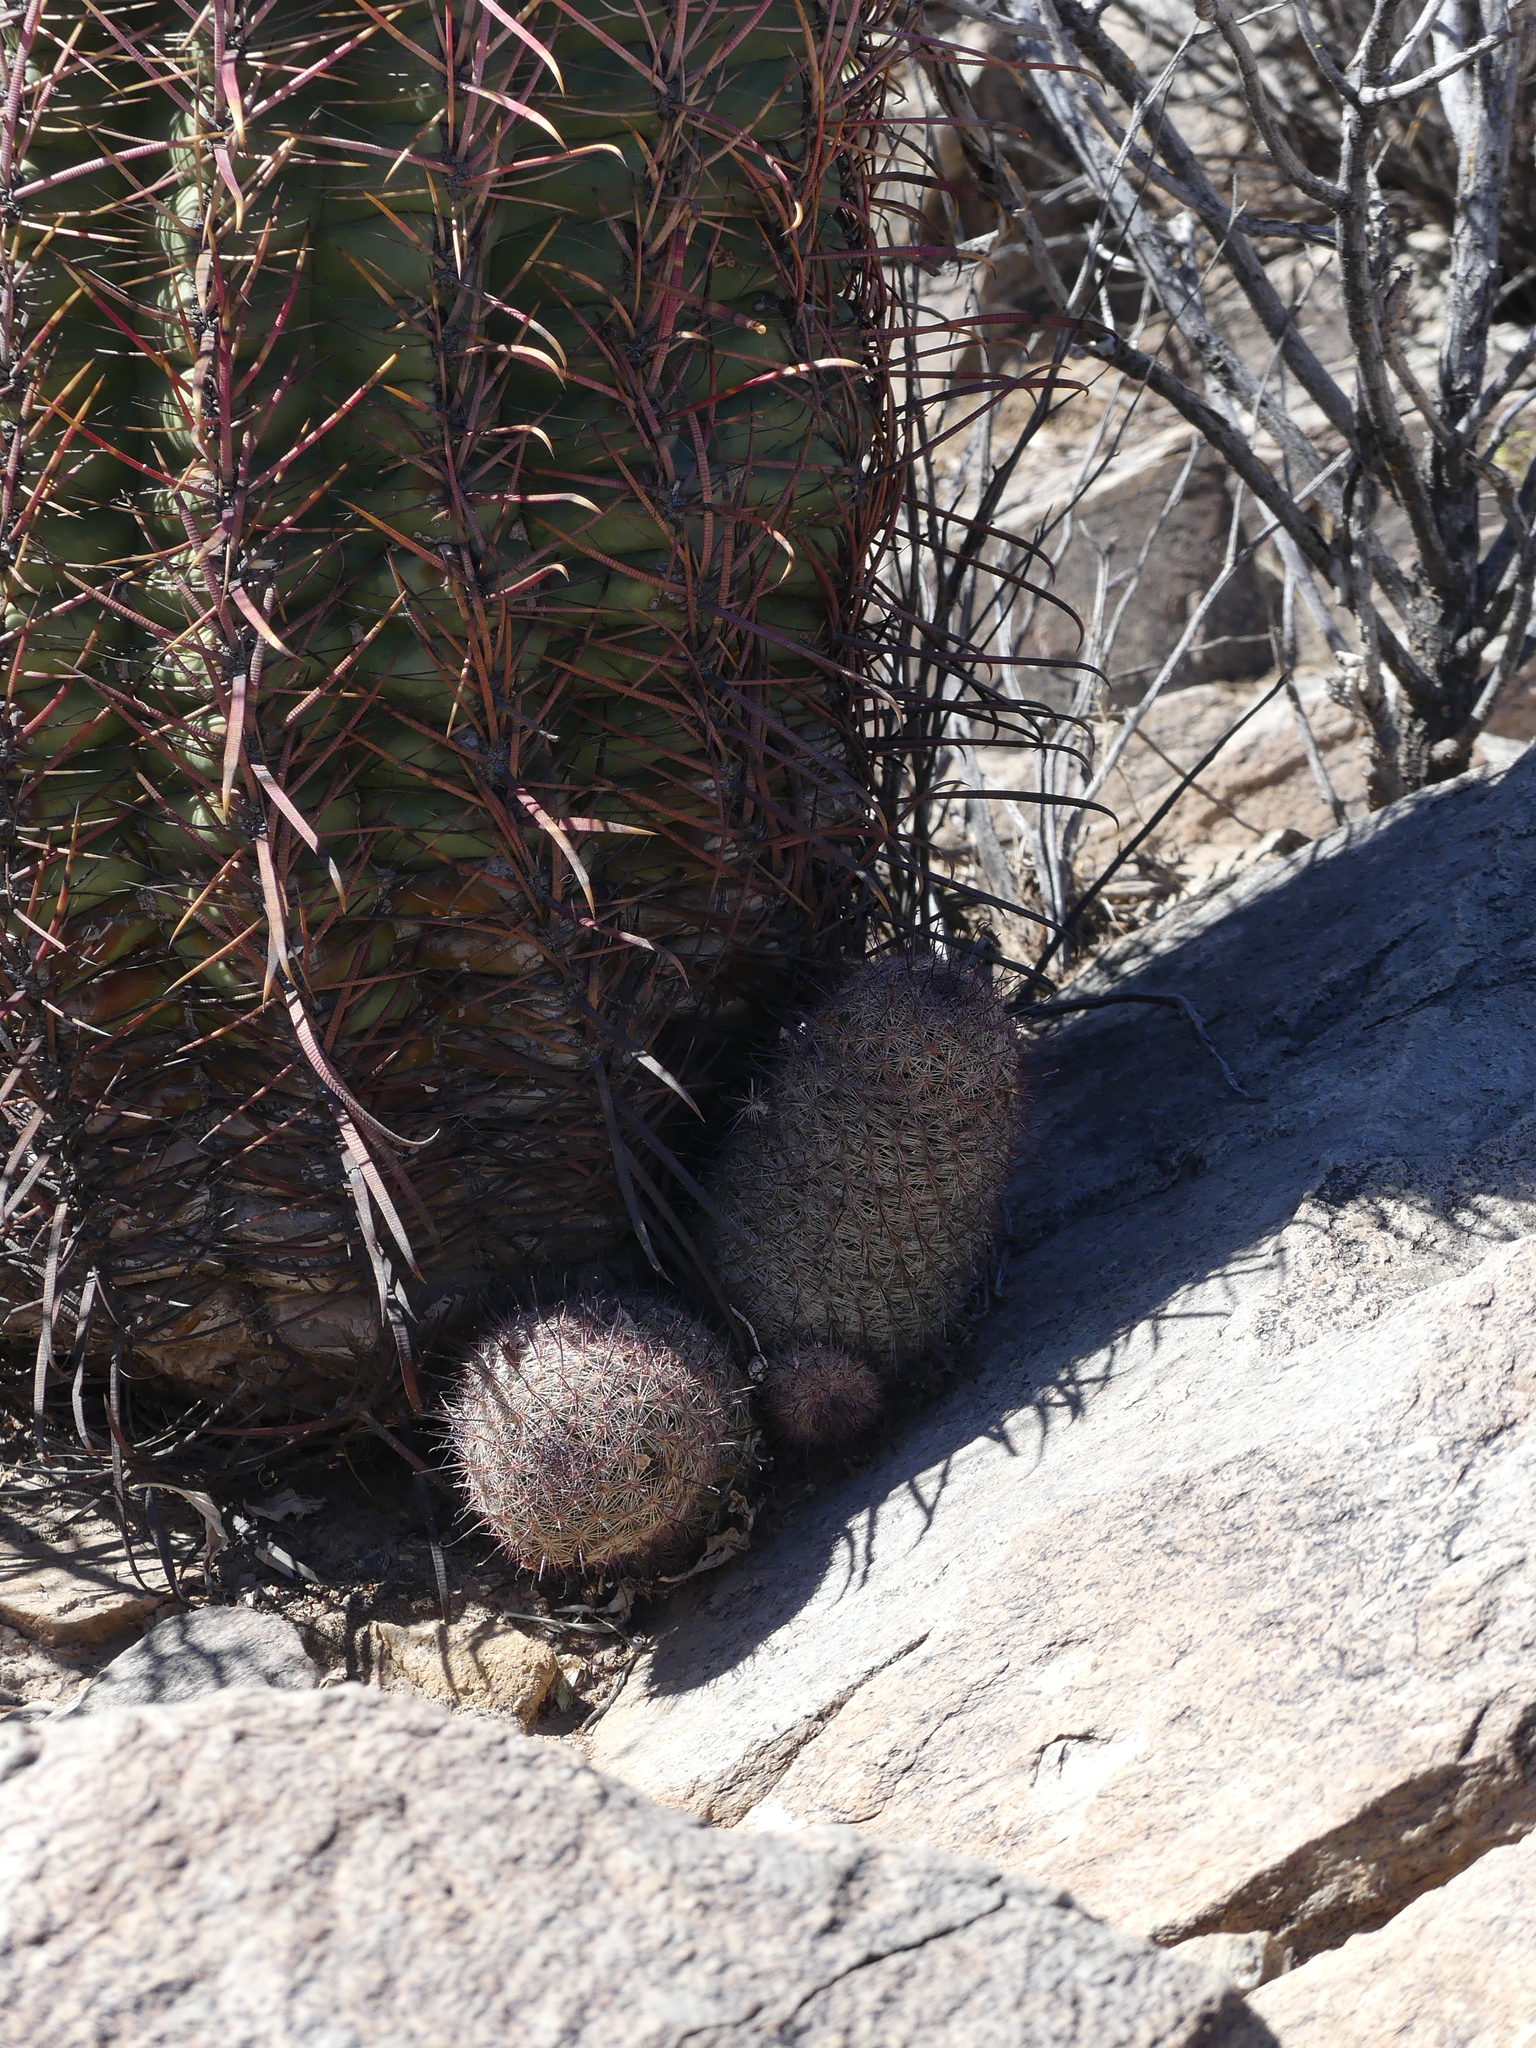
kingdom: Plantae
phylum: Tracheophyta
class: Magnoliopsida
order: Caryophyllales
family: Cactaceae
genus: Cochemiea
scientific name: Cochemiea grahamii
